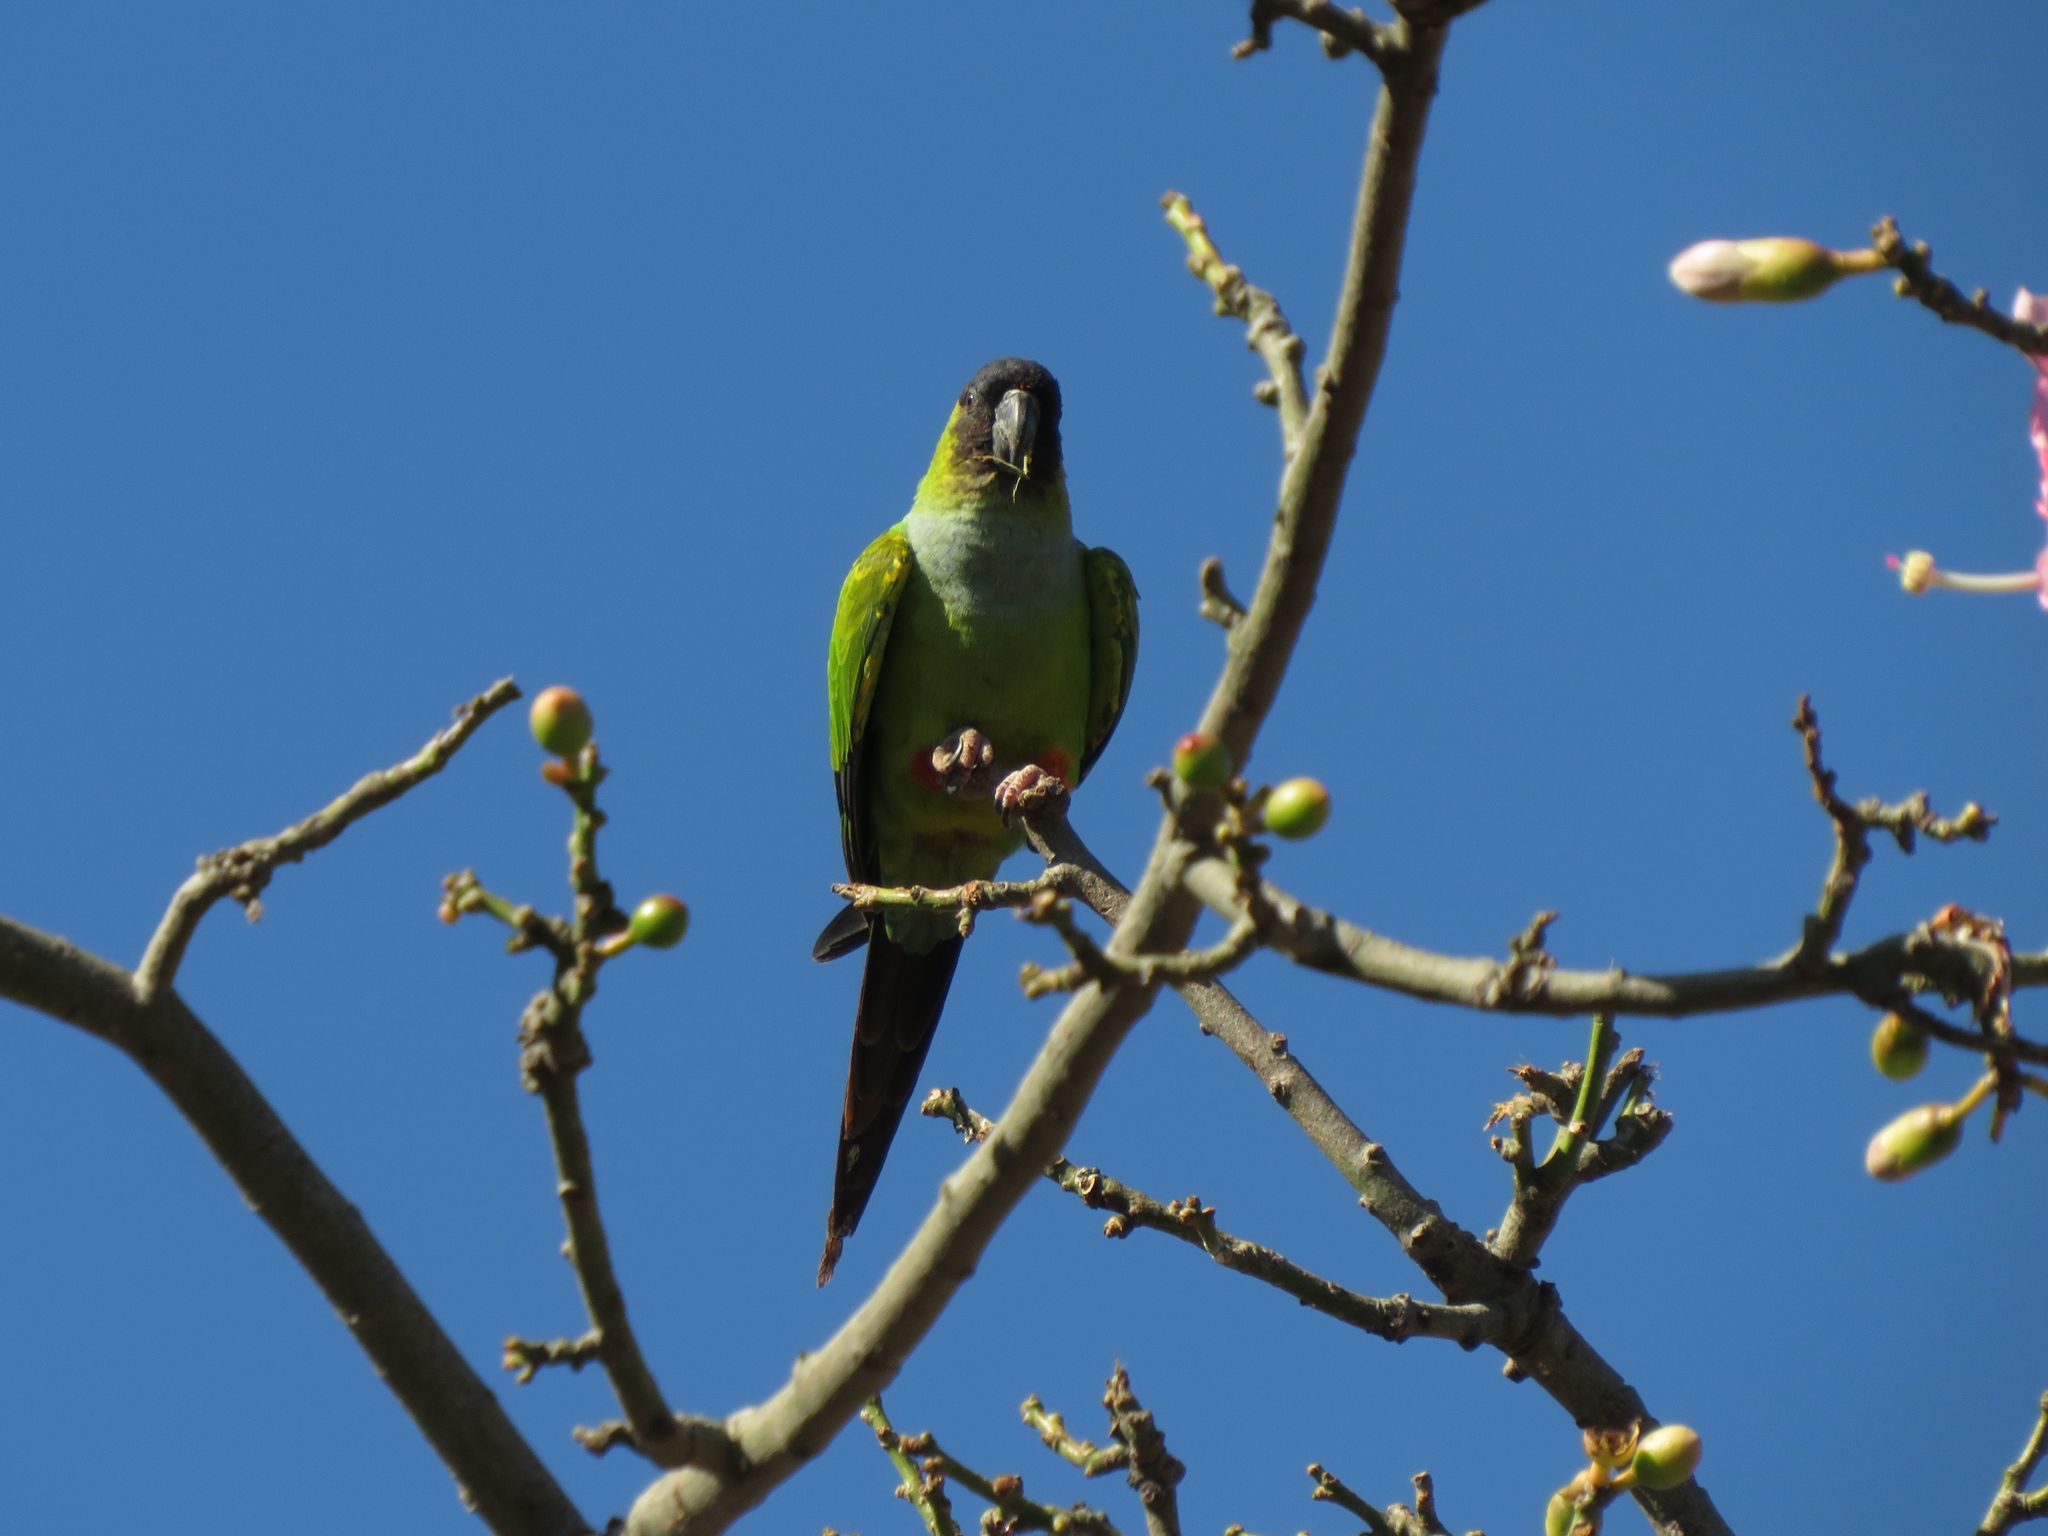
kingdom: Animalia
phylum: Chordata
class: Aves
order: Psittaciformes
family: Psittacidae
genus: Nandayus
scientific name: Nandayus nenday
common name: Nanday parakeet
